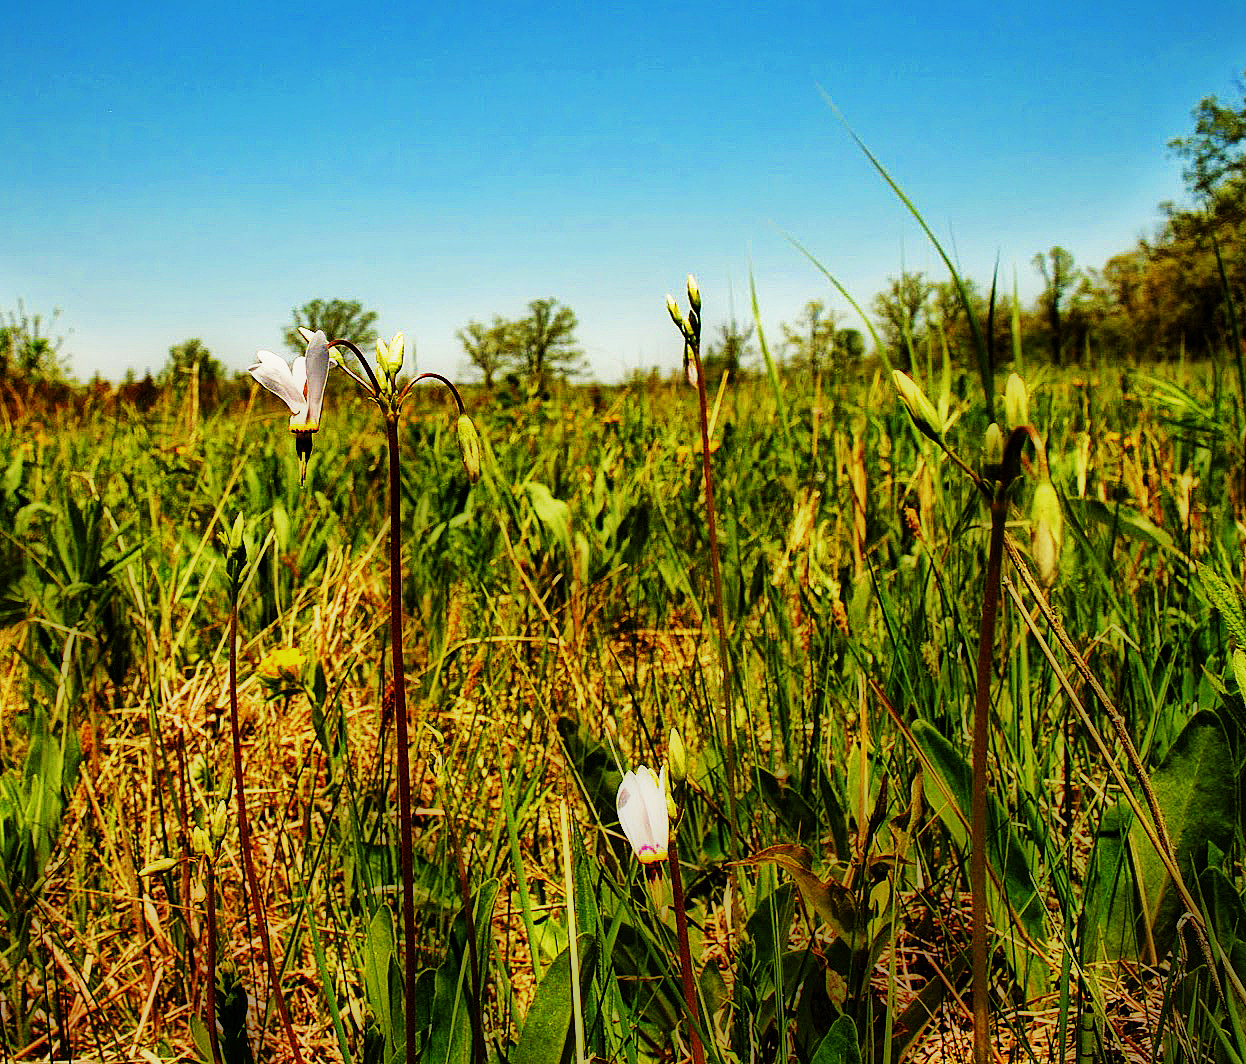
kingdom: Plantae
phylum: Tracheophyta
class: Magnoliopsida
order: Ericales
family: Primulaceae
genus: Dodecatheon
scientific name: Dodecatheon meadia
